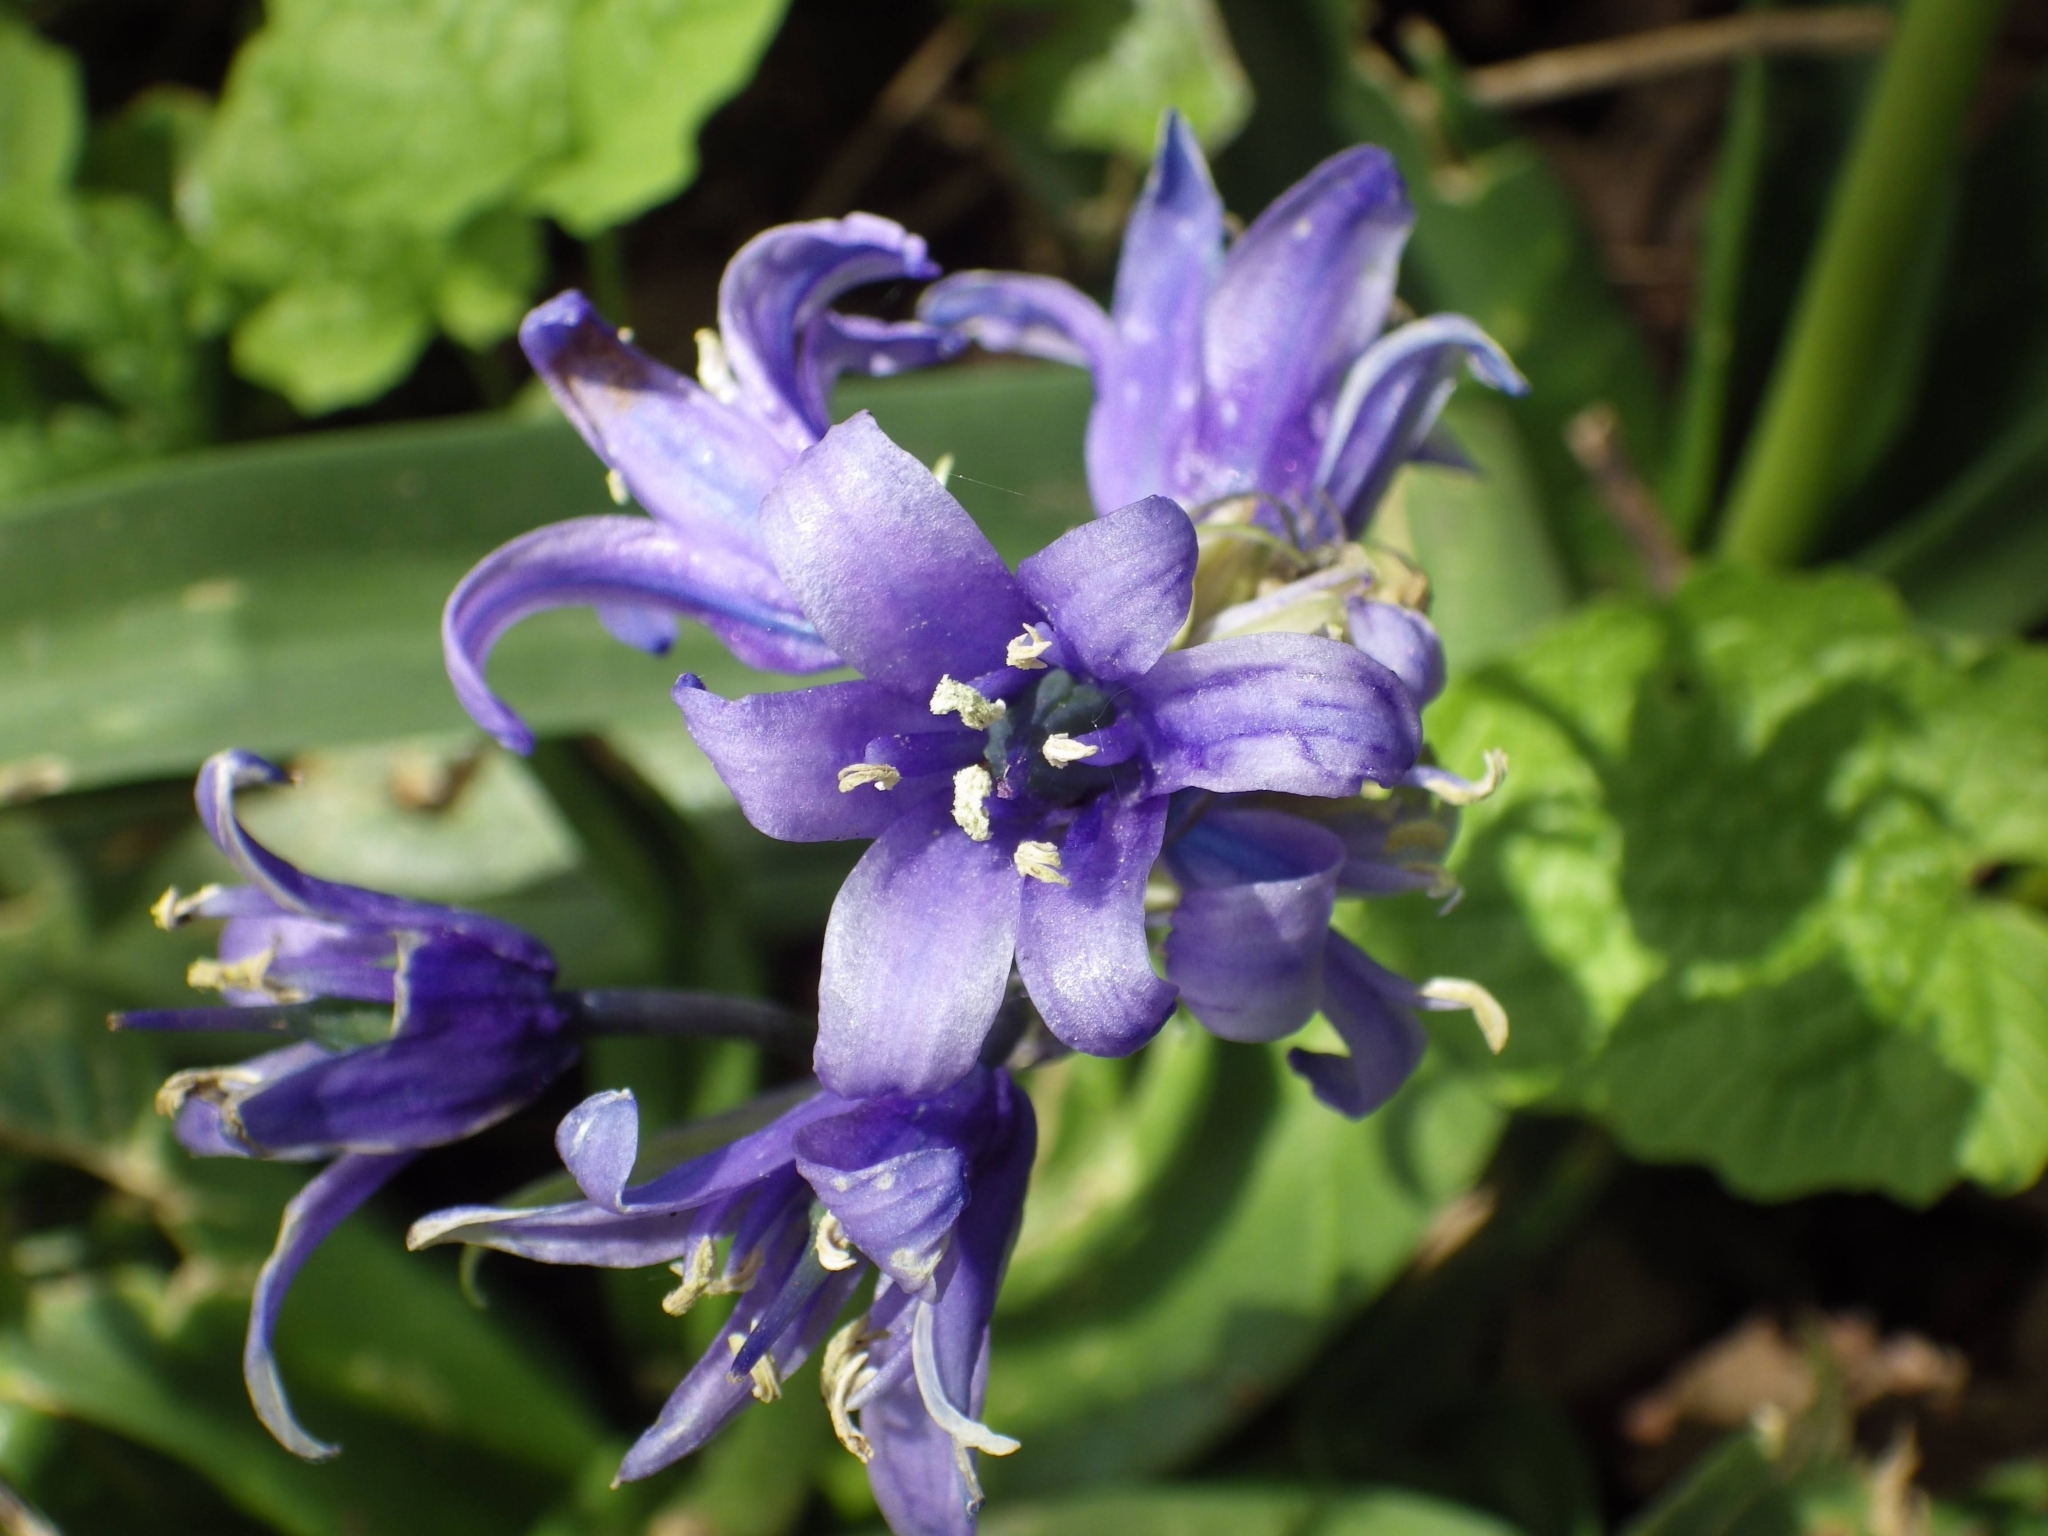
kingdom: Plantae
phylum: Tracheophyta
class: Liliopsida
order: Asparagales
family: Asparagaceae
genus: Hyacinthoides
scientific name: Hyacinthoides hispanica
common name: Spanish bluebell
